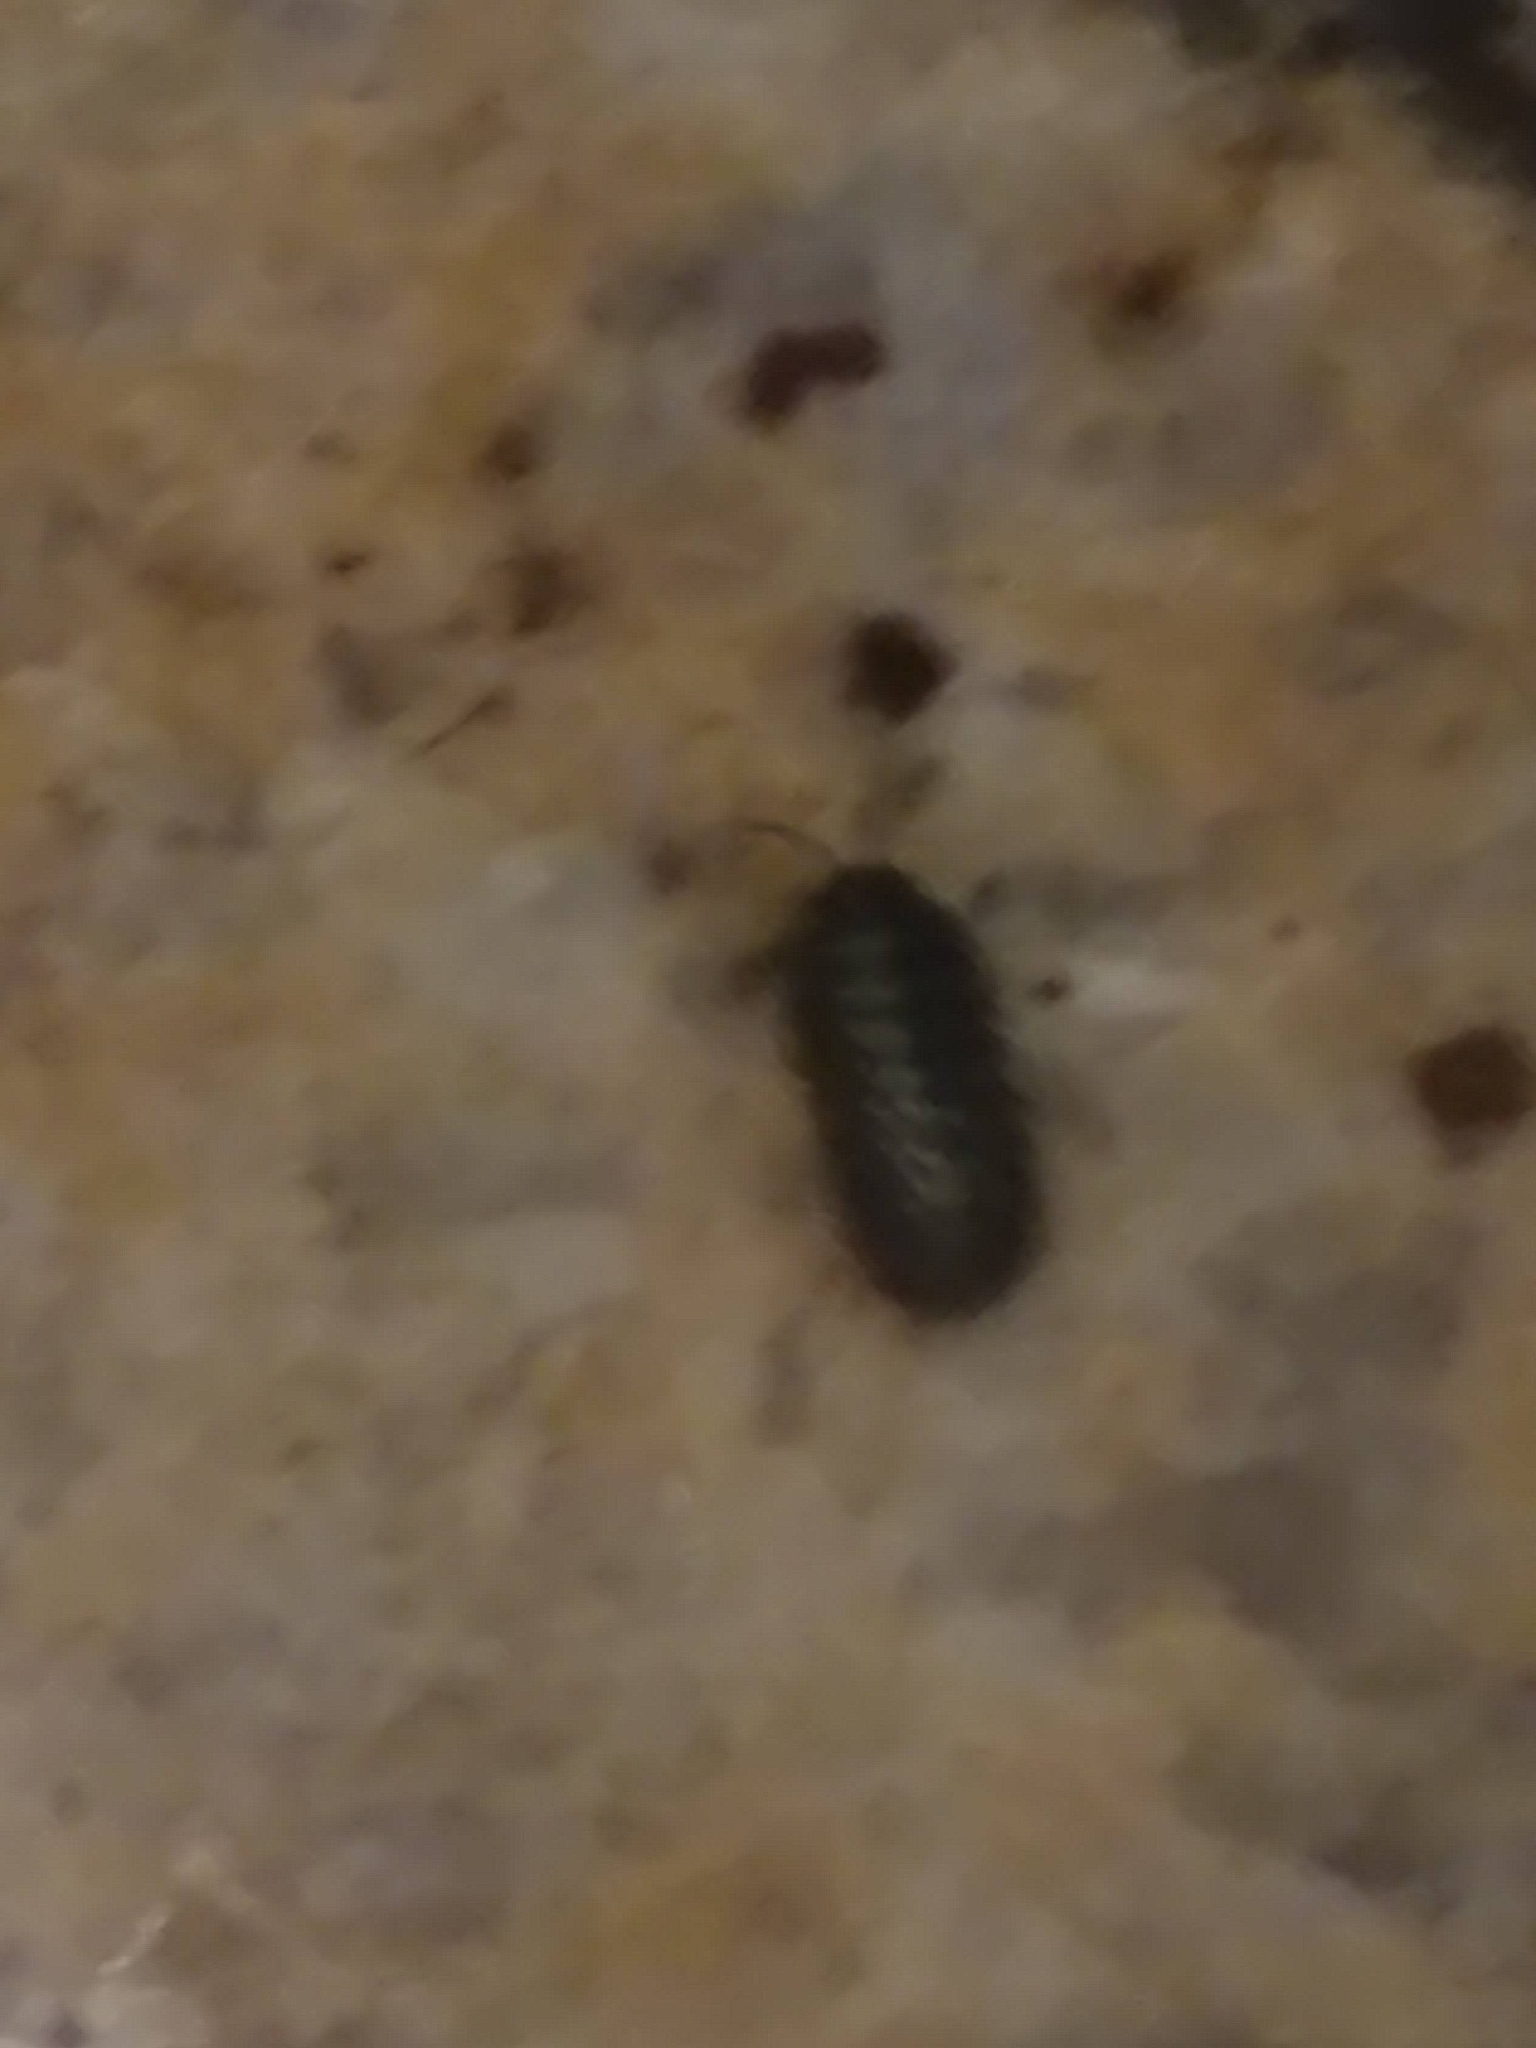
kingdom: Animalia
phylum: Arthropoda
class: Malacostraca
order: Isopoda
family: Armadillidiidae
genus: Armadillidium
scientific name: Armadillidium vulgare
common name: Common pill woodlouse
